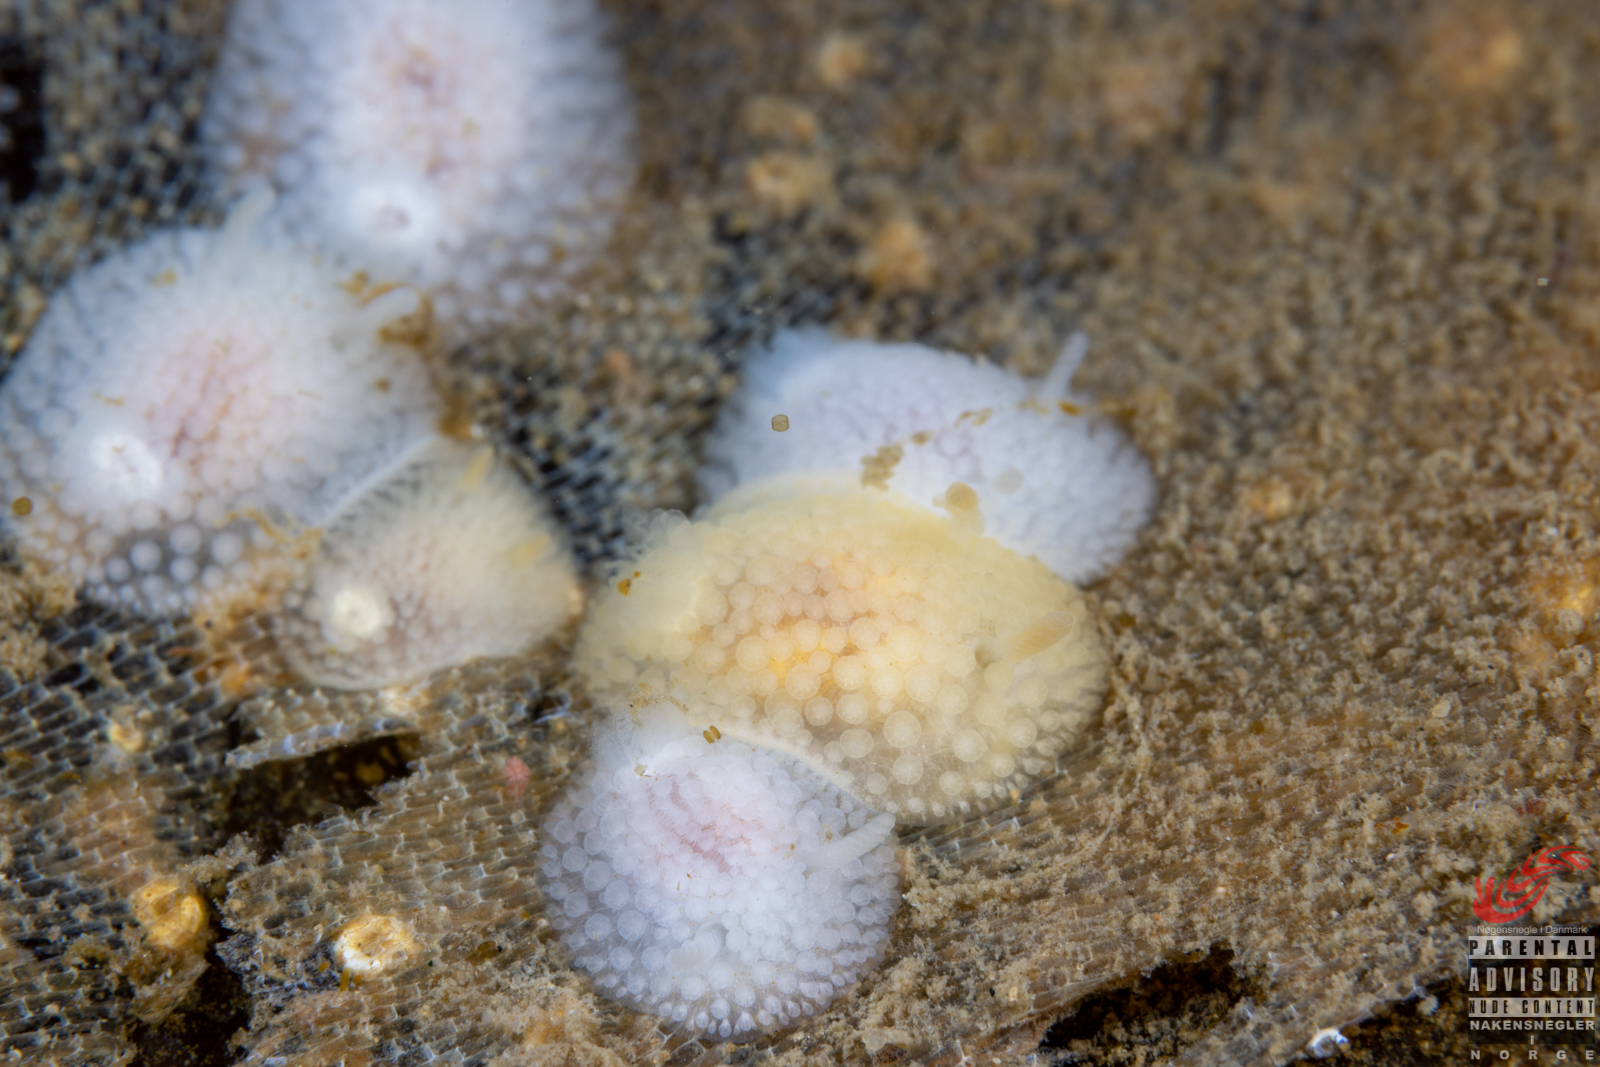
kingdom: Animalia
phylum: Mollusca
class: Gastropoda
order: Nudibranchia
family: Onchidorididae
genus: Onchidoris
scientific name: Onchidoris muricata
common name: Rough doris
